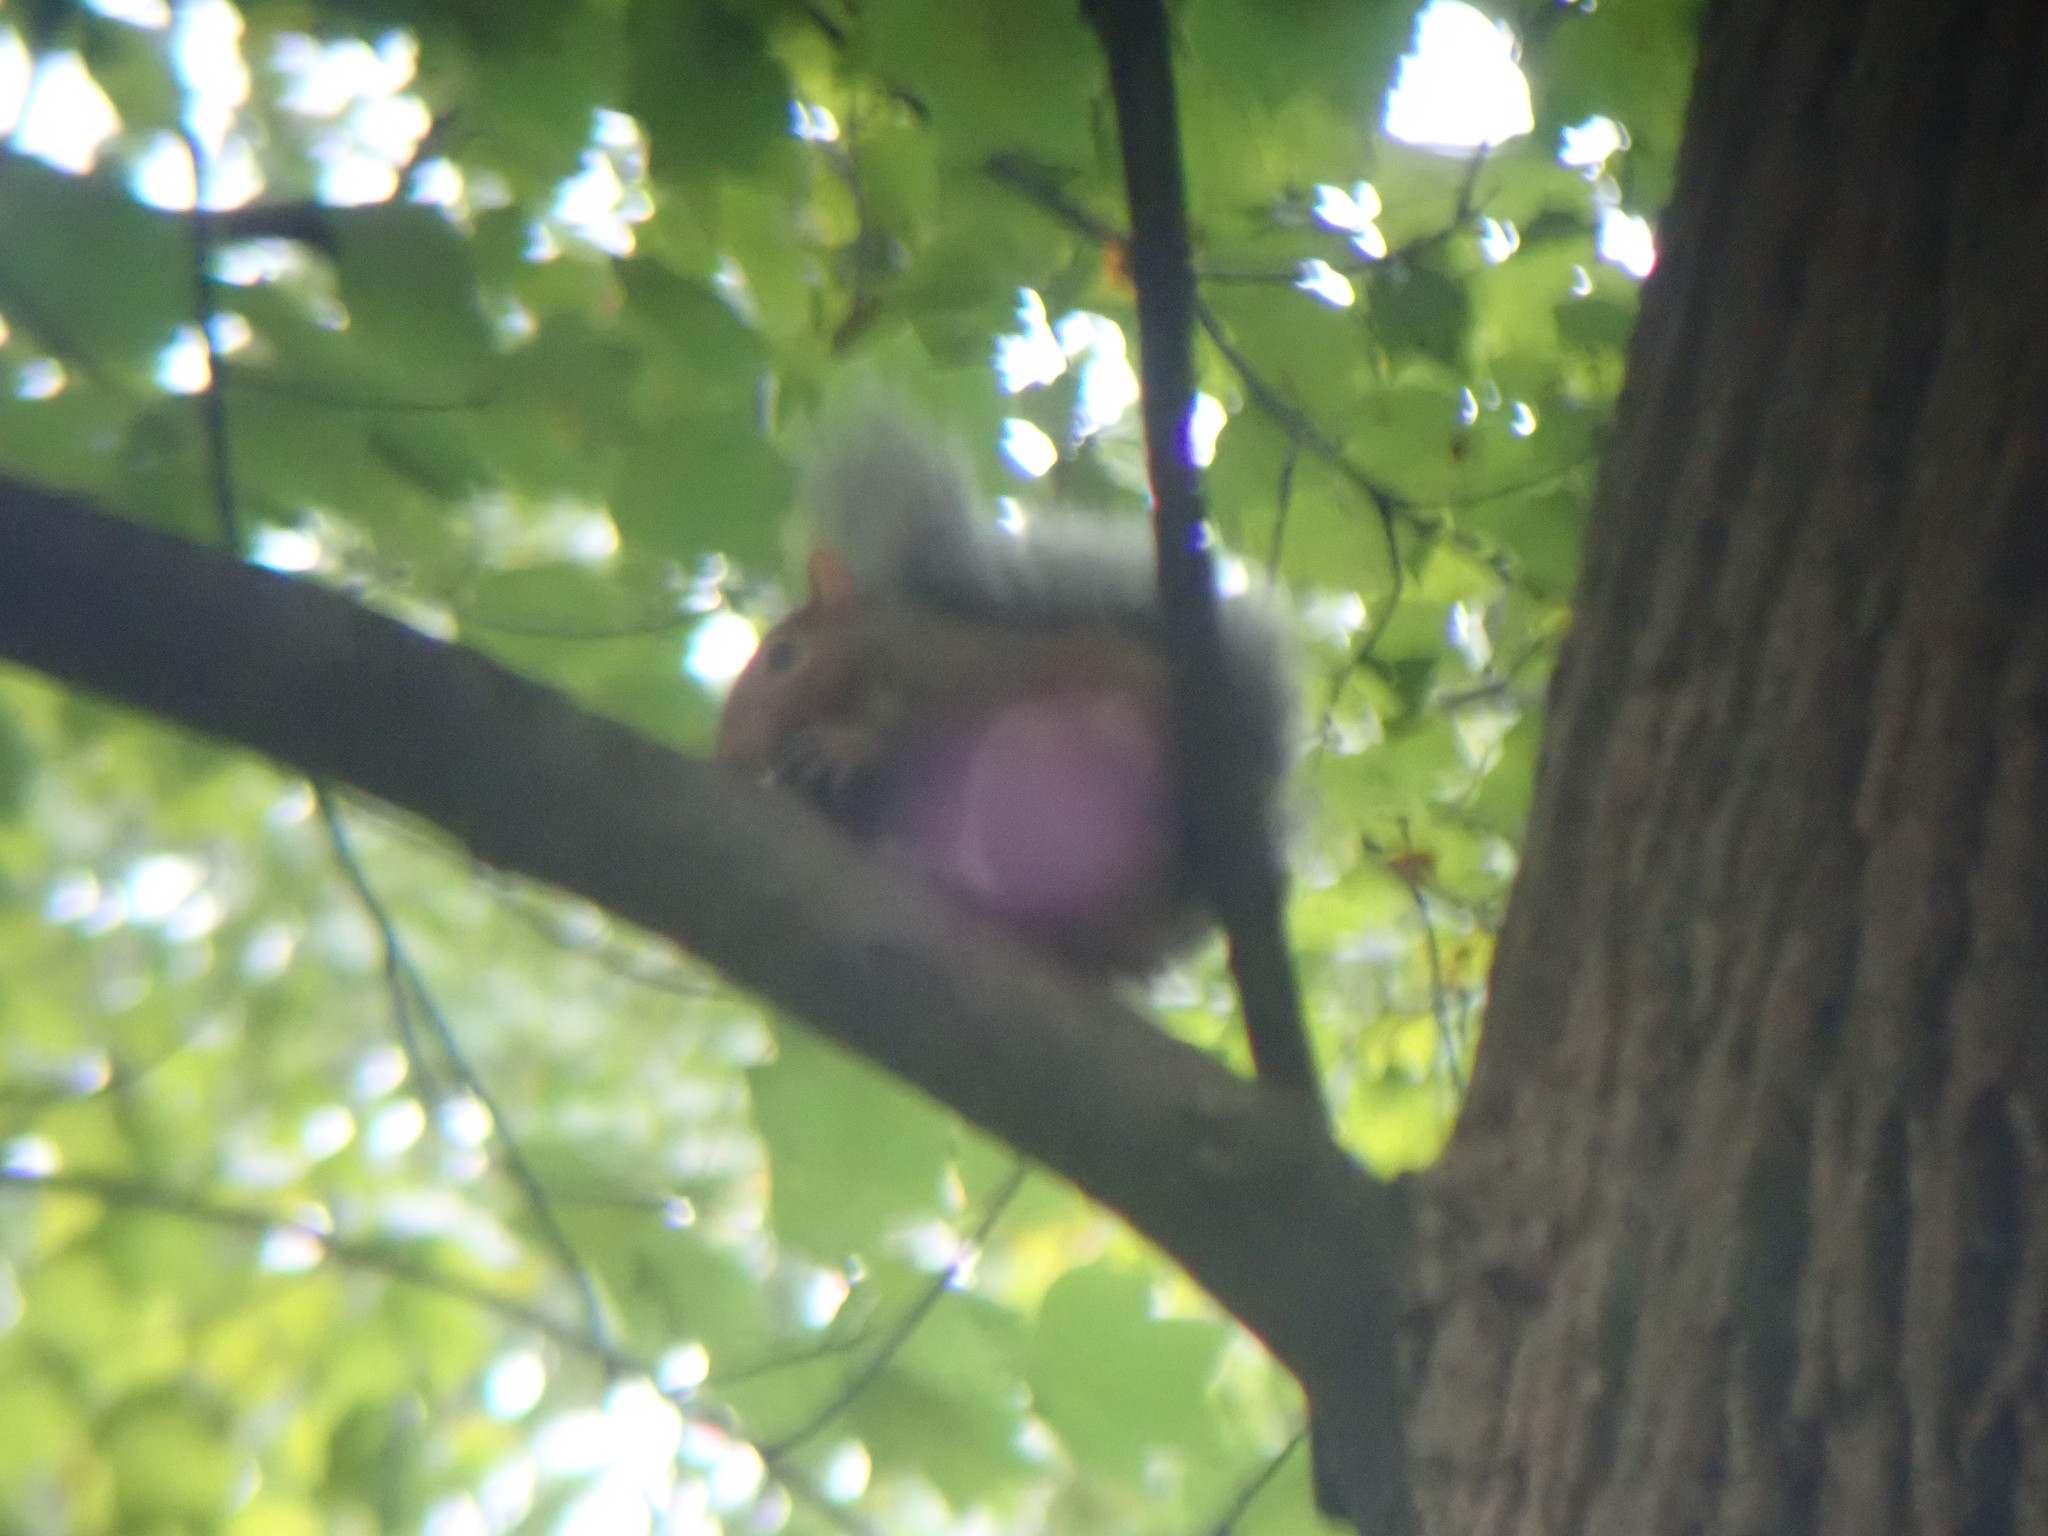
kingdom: Animalia
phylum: Chordata
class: Mammalia
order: Rodentia
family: Sciuridae
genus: Sciurus
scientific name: Sciurus carolinensis
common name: Eastern gray squirrel
